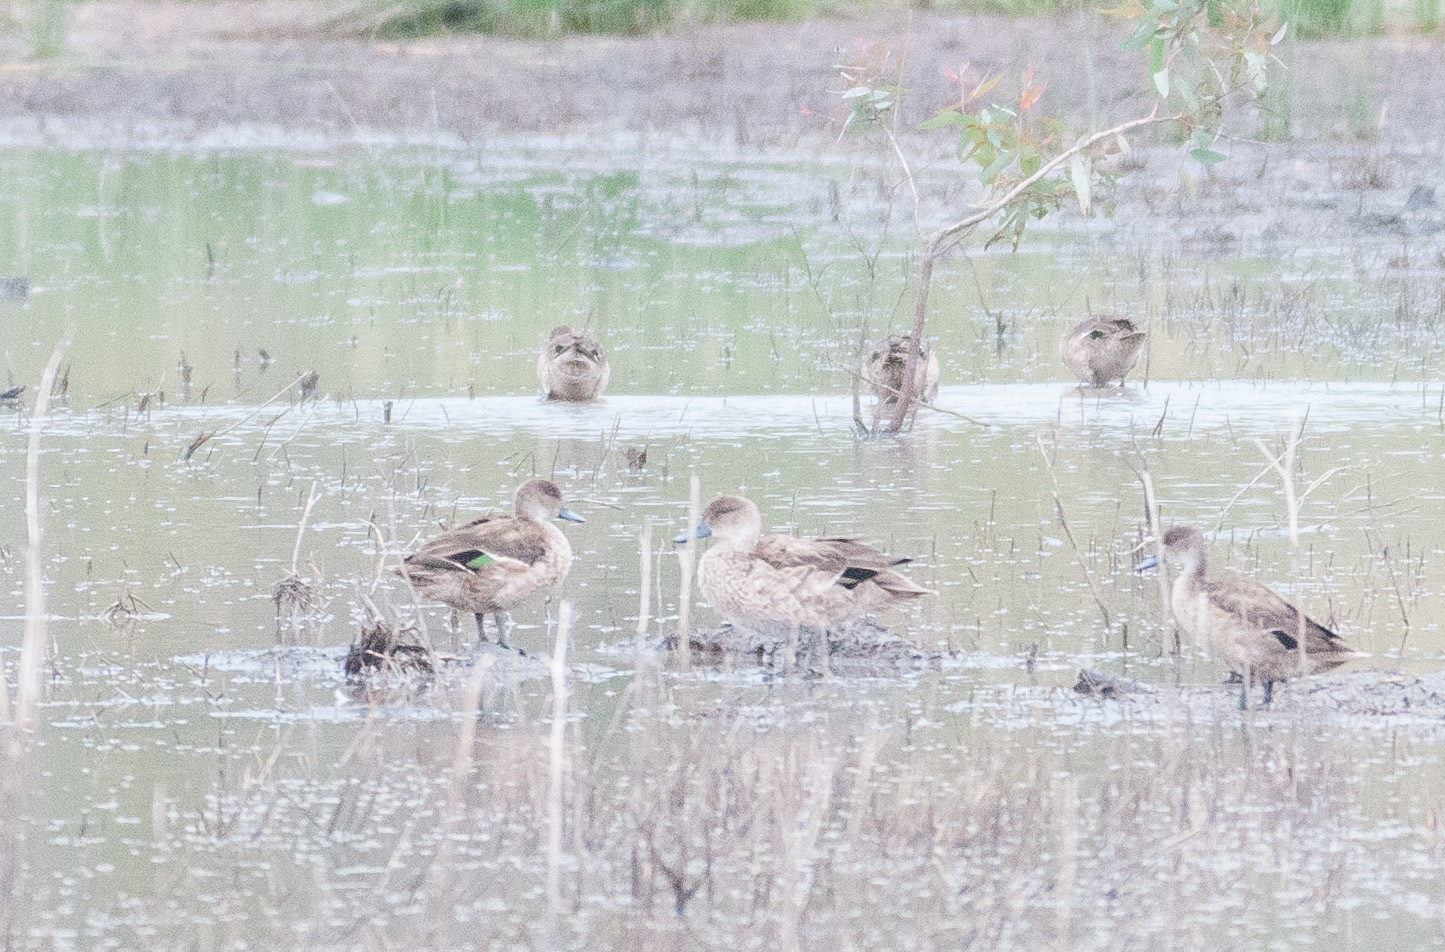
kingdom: Animalia
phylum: Chordata
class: Aves
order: Anseriformes
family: Anatidae
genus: Anas
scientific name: Anas gracilis
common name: Grey teal
